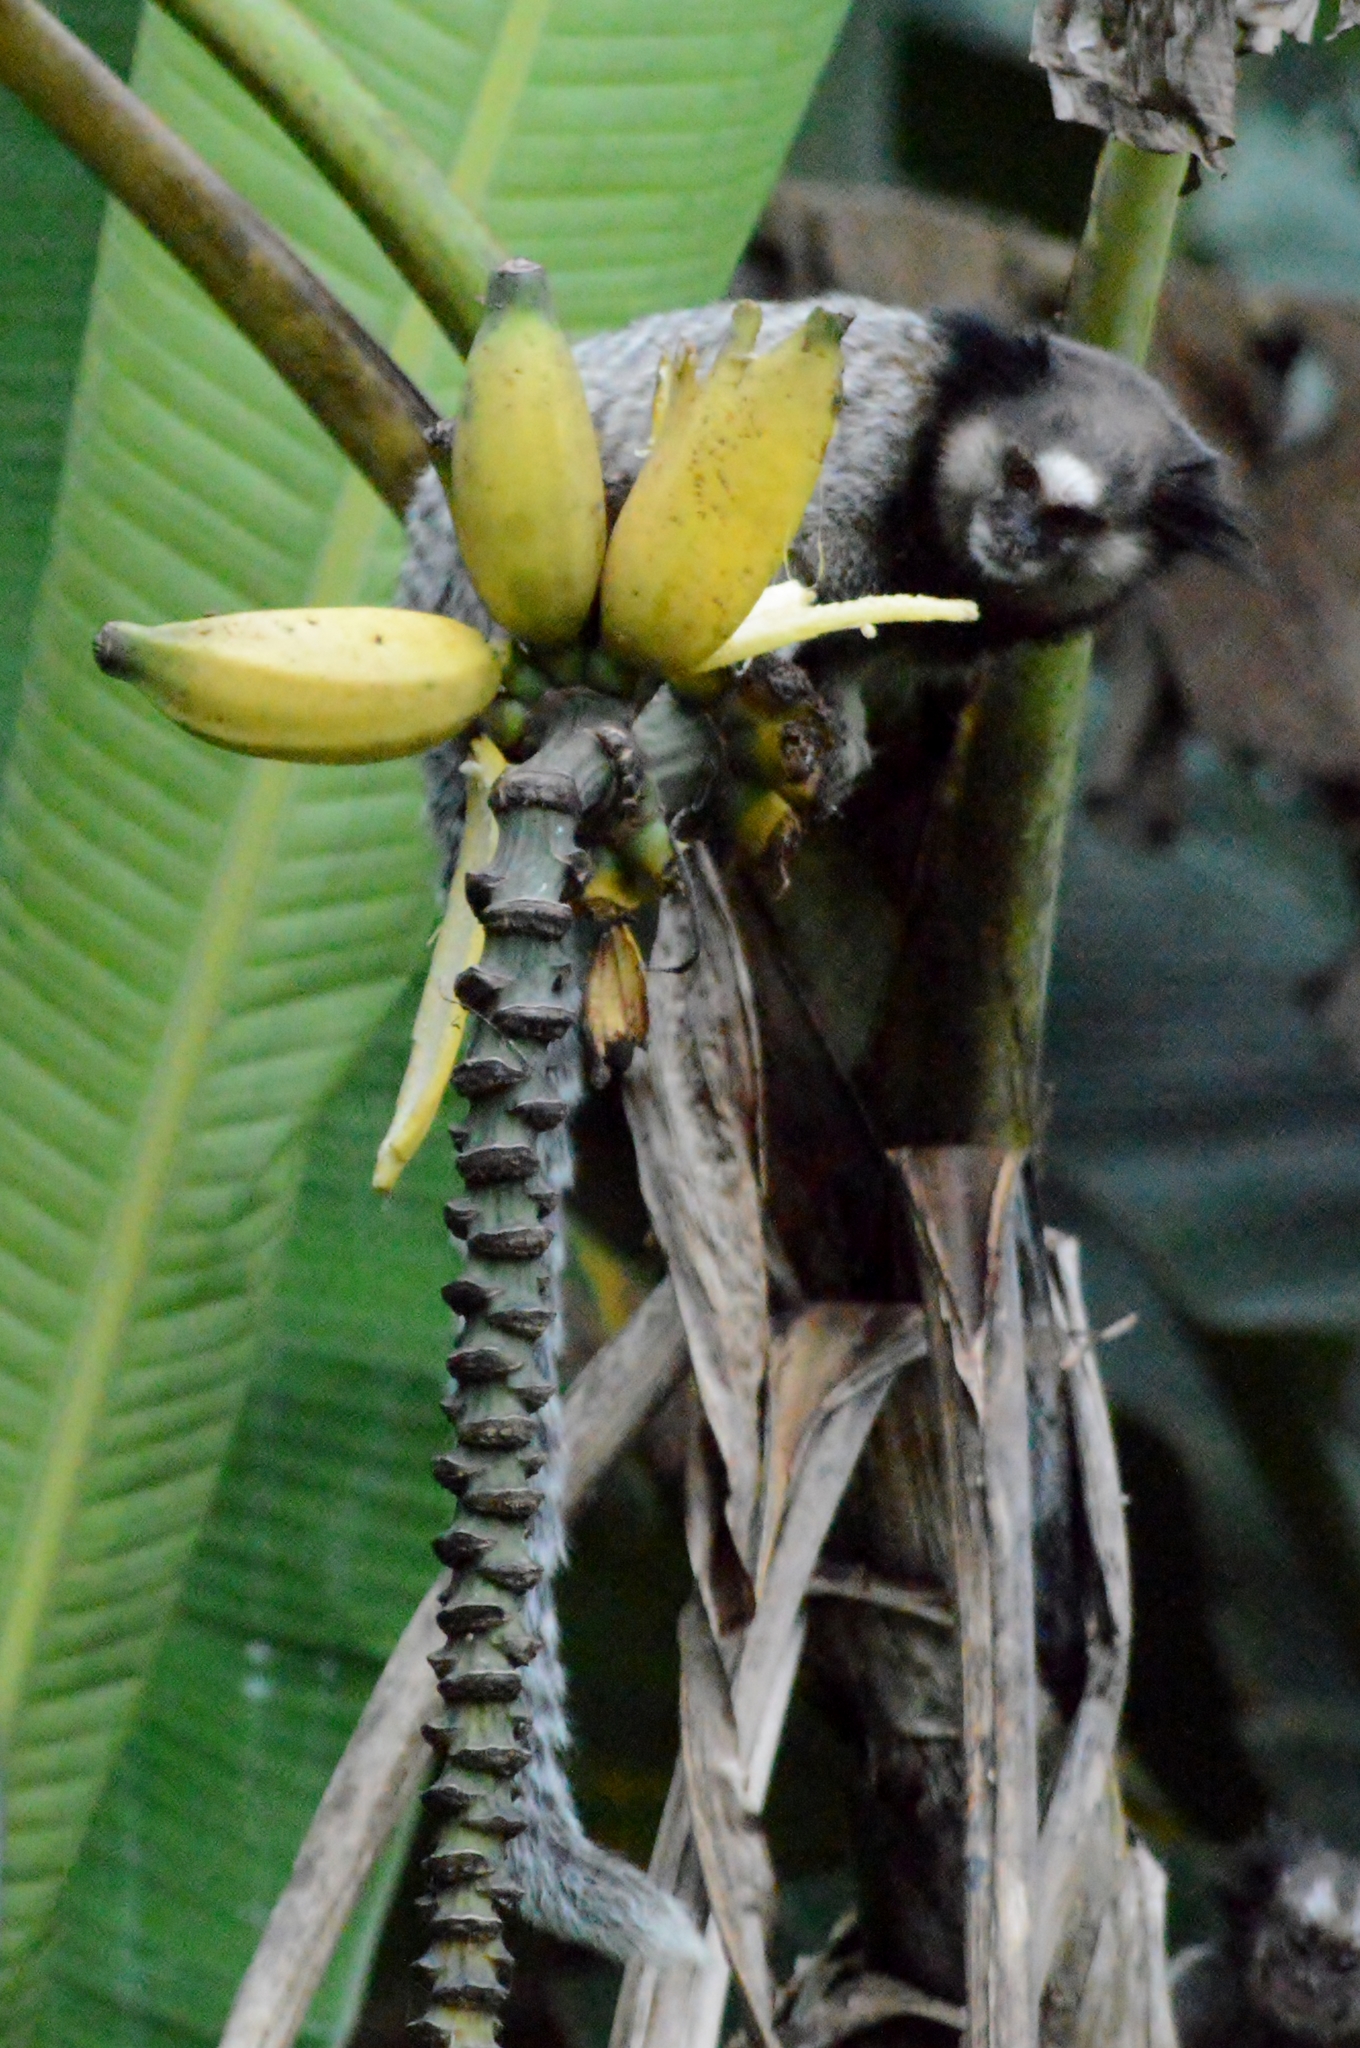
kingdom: Animalia
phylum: Chordata
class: Mammalia
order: Primates
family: Callitrichidae
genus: Callithrix
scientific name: Callithrix penicillata
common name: Black-tufted marmoset
